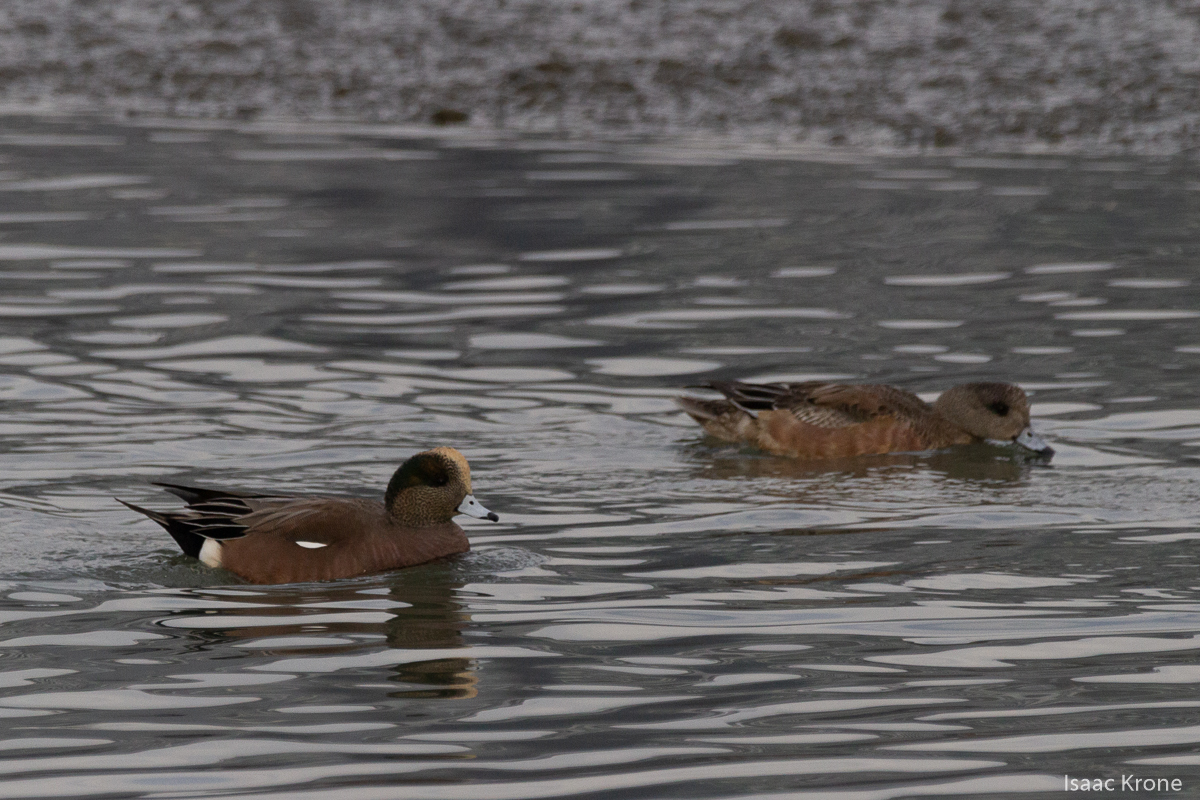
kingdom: Animalia
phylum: Chordata
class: Aves
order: Anseriformes
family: Anatidae
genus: Mareca
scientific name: Mareca americana
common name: American wigeon
